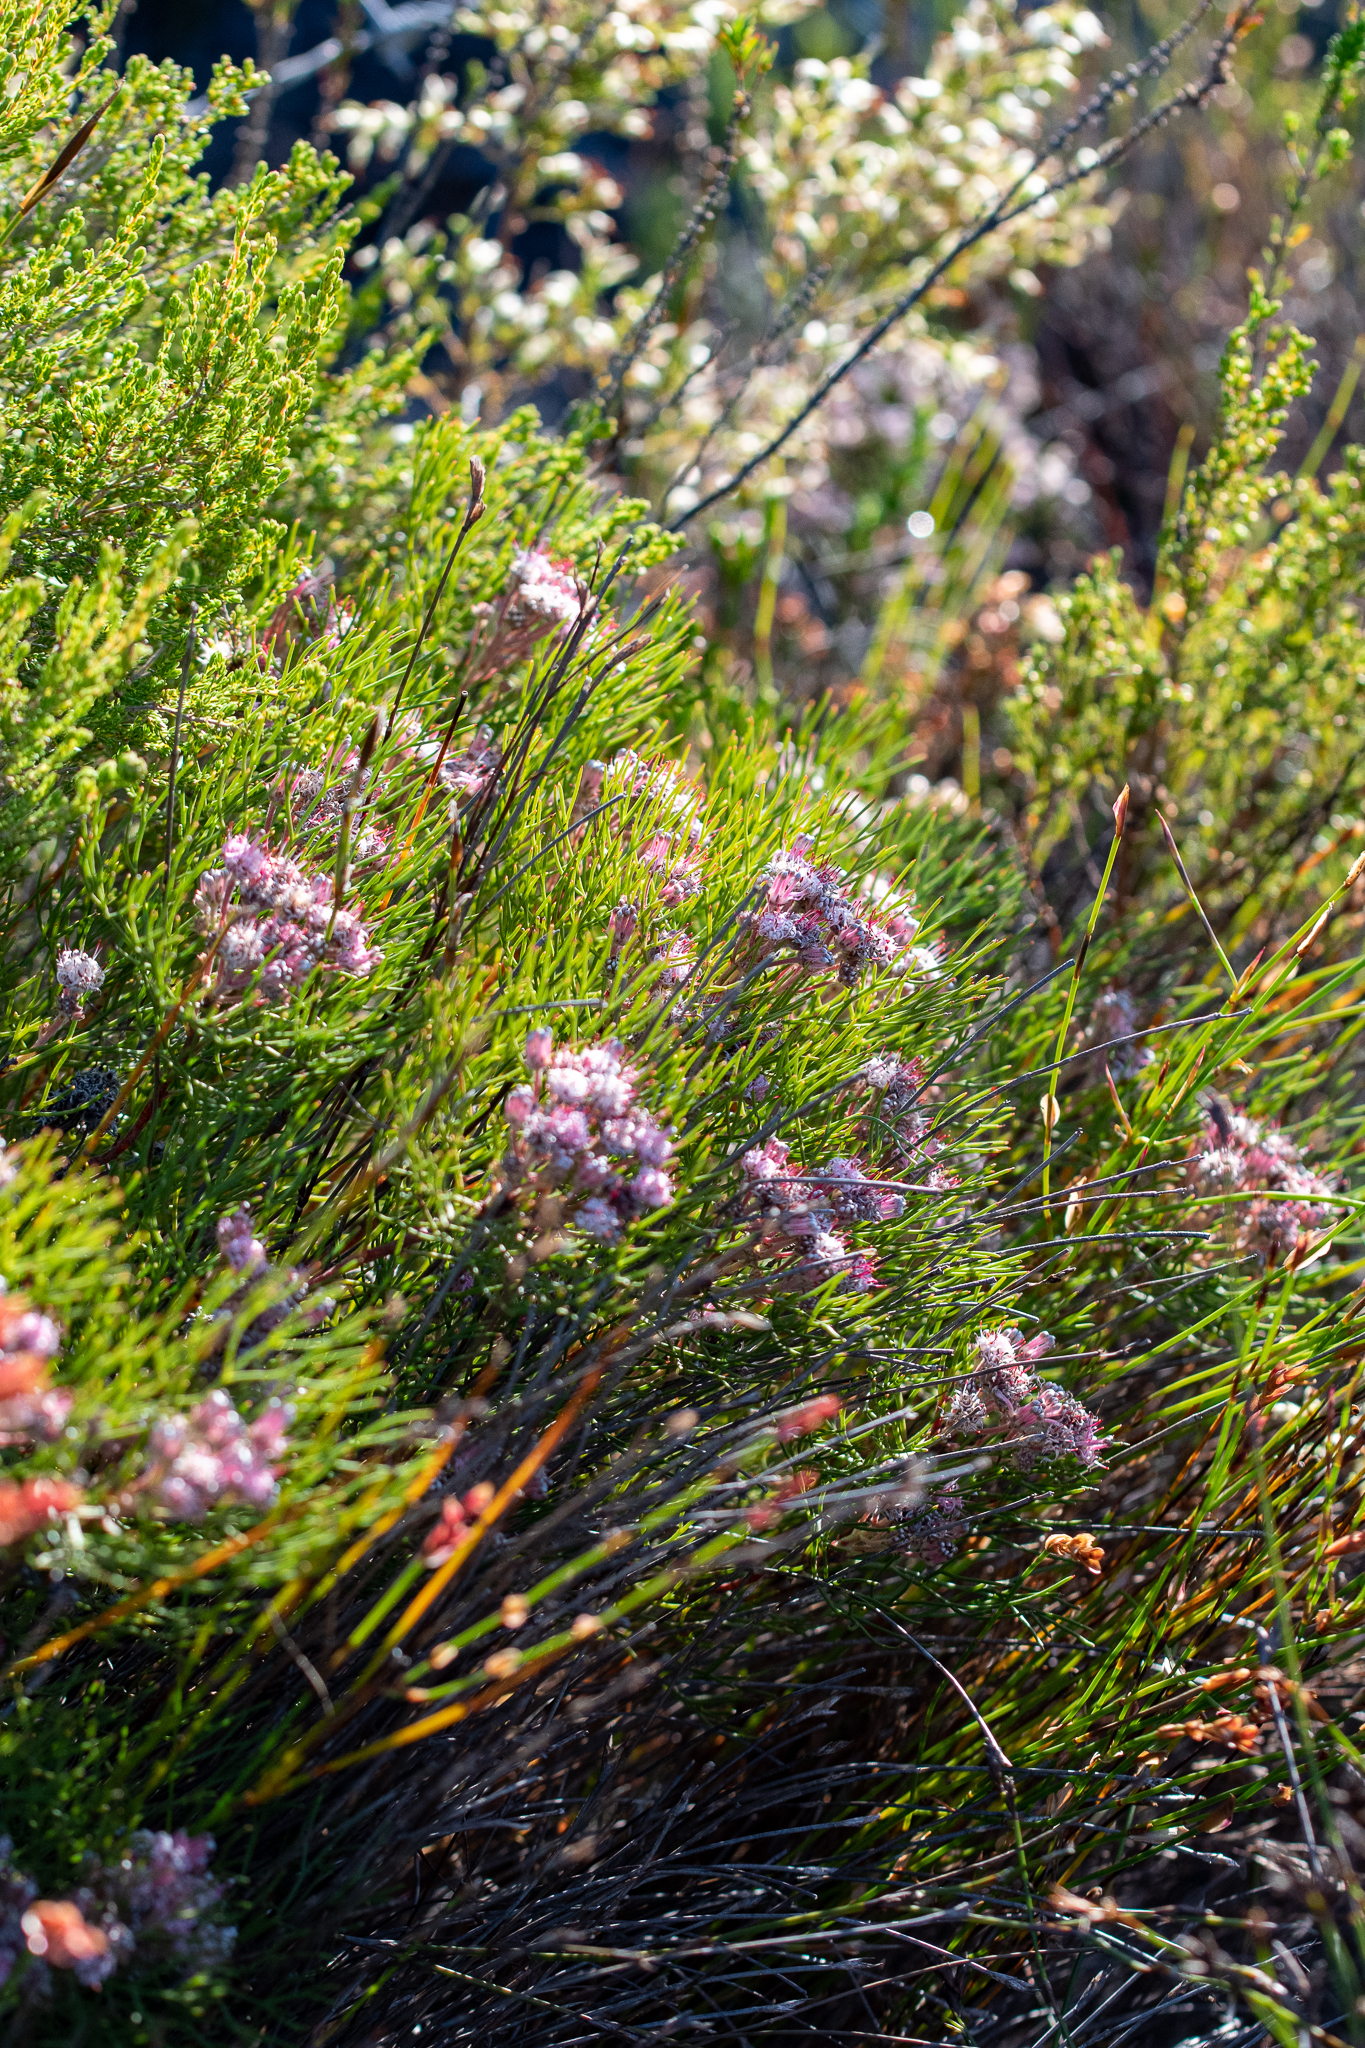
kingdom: Plantae
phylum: Tracheophyta
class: Magnoliopsida
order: Proteales
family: Proteaceae
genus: Serruria
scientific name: Serruria fasciflora
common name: Common pin spiderhead
